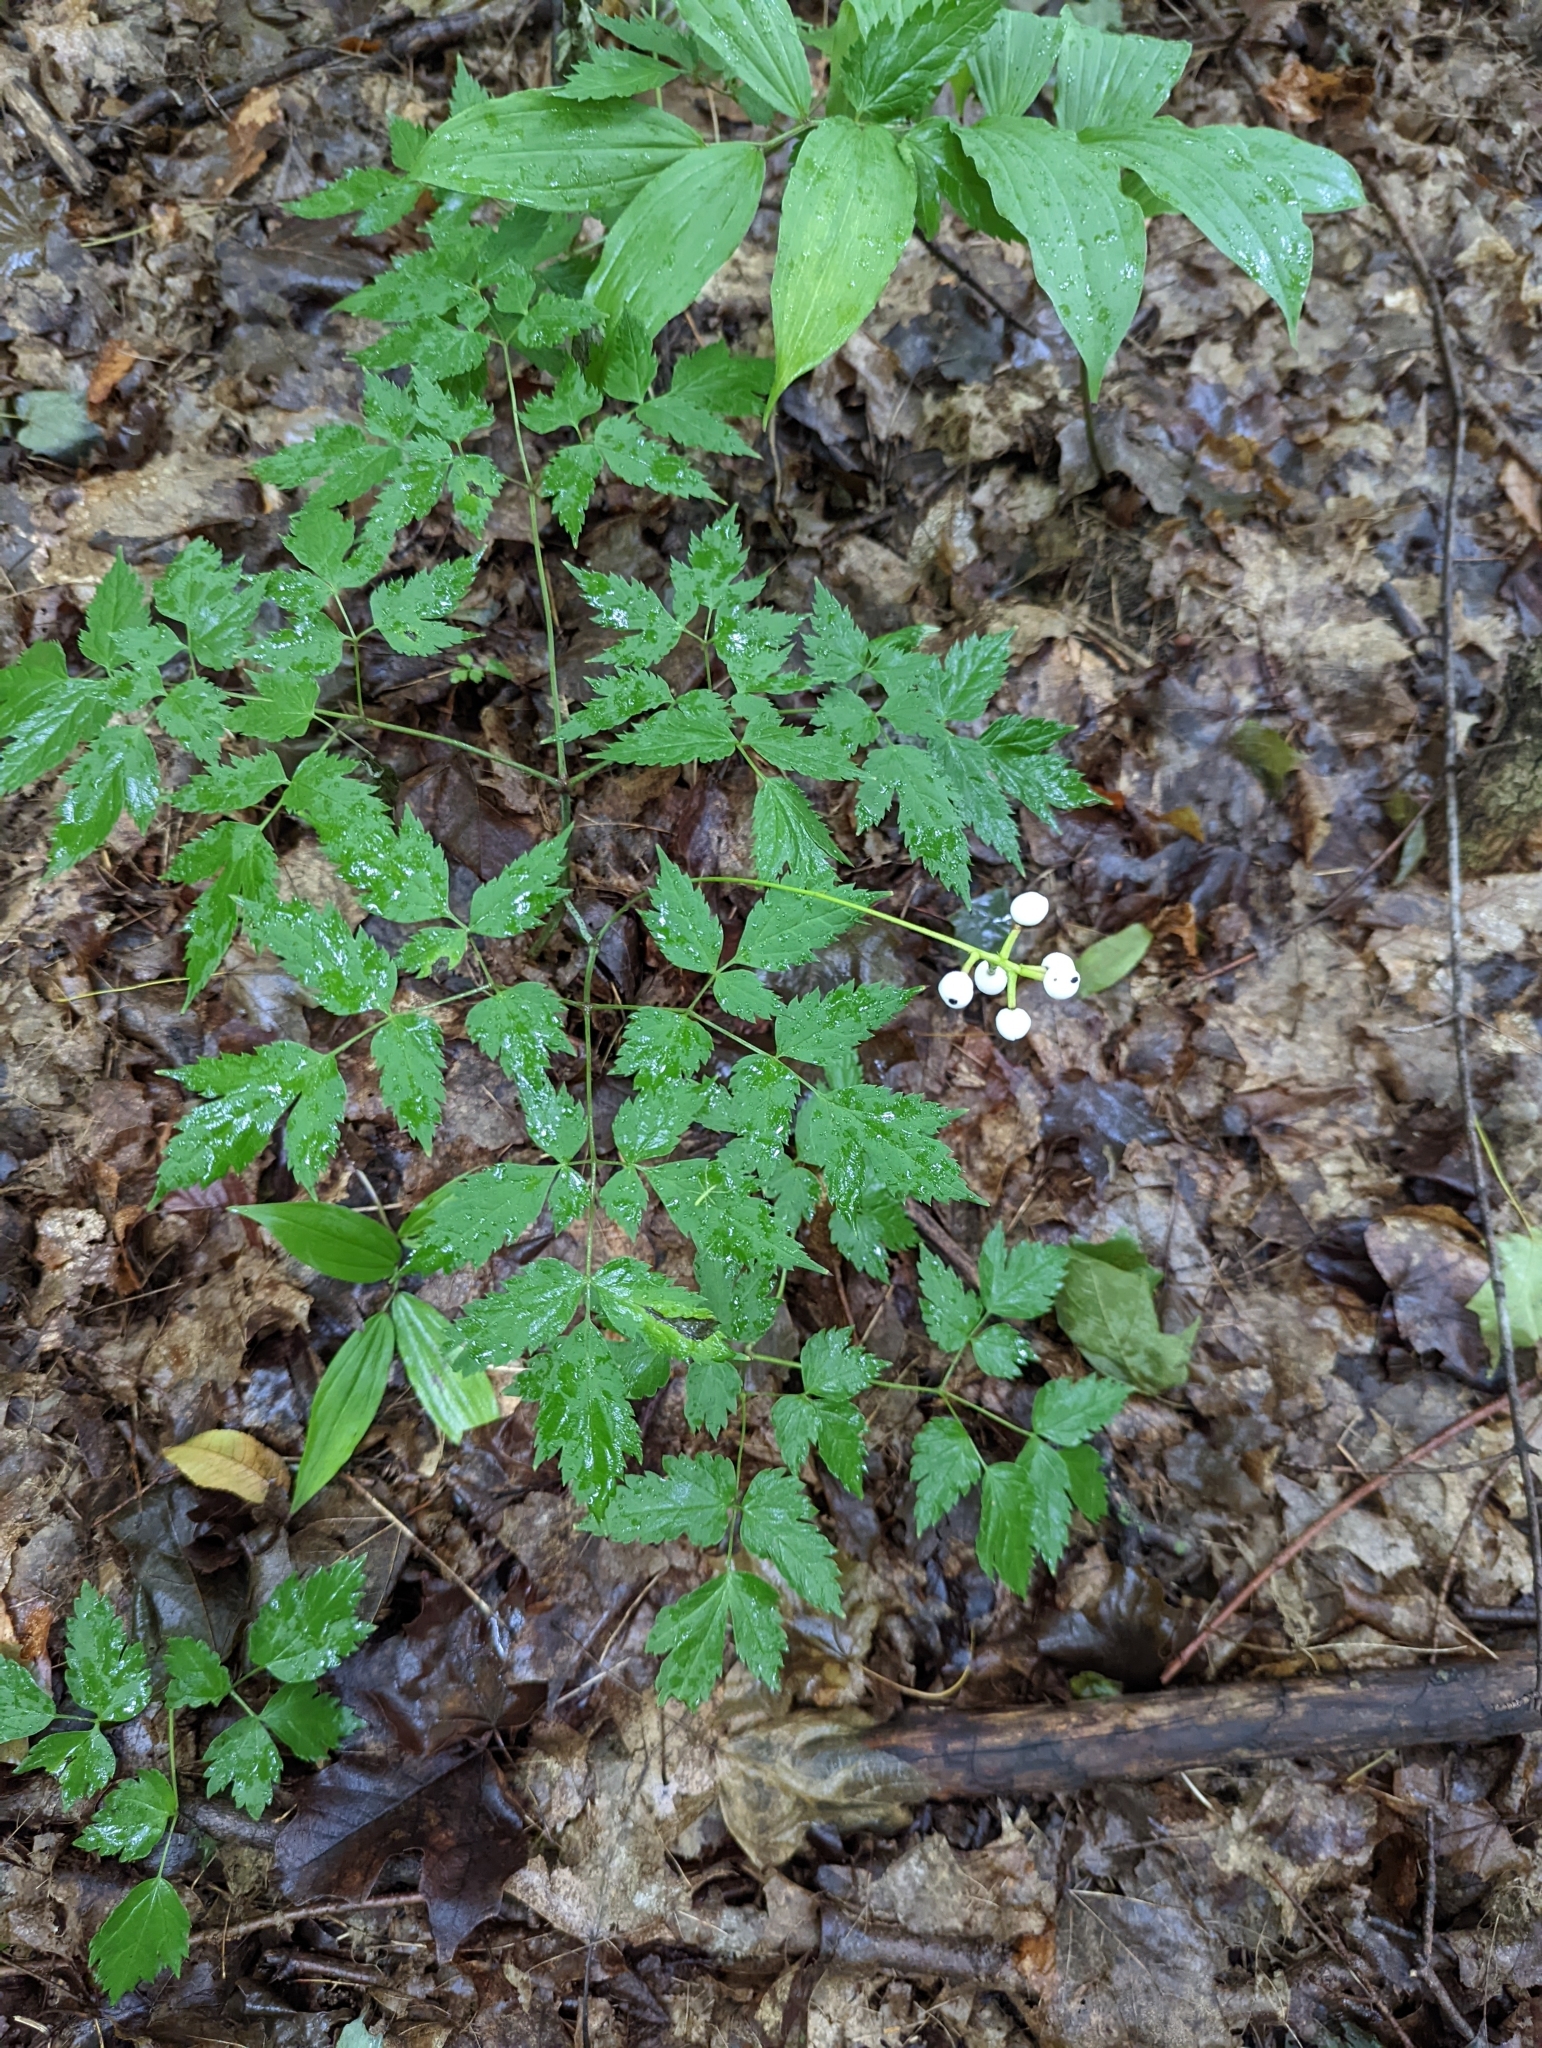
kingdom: Plantae
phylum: Tracheophyta
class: Magnoliopsida
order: Ranunculales
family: Ranunculaceae
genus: Actaea
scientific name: Actaea pachypoda
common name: Doll's-eyes
